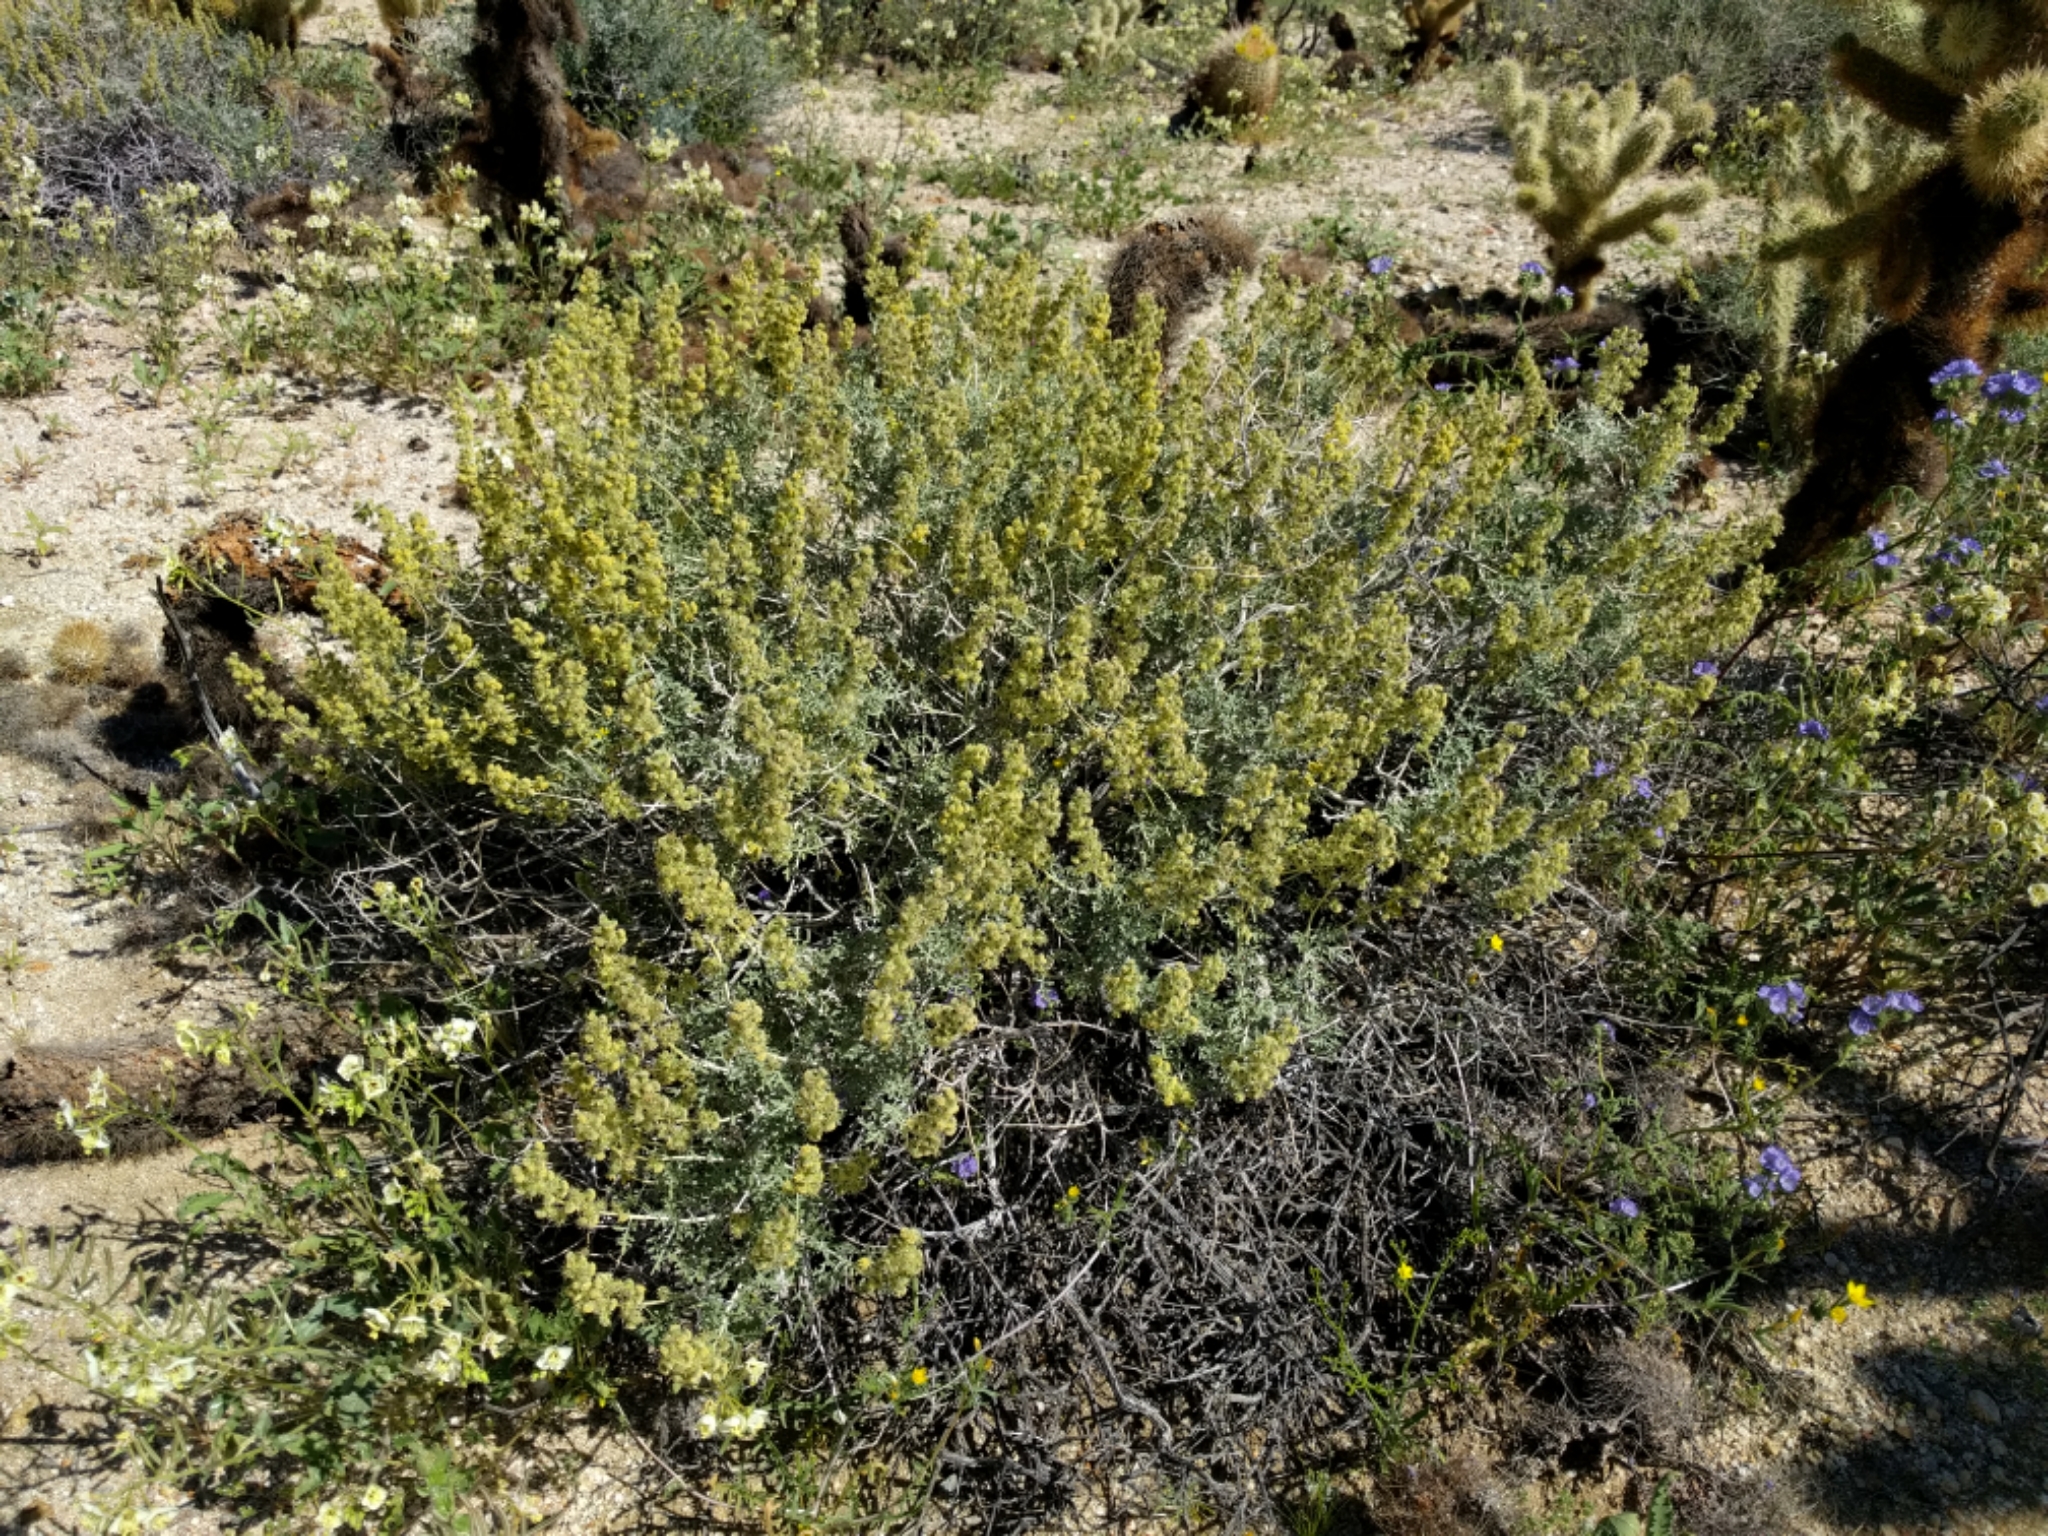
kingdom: Plantae
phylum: Tracheophyta
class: Magnoliopsida
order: Asterales
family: Asteraceae
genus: Ambrosia
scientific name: Ambrosia dumosa
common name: Bur-sage
